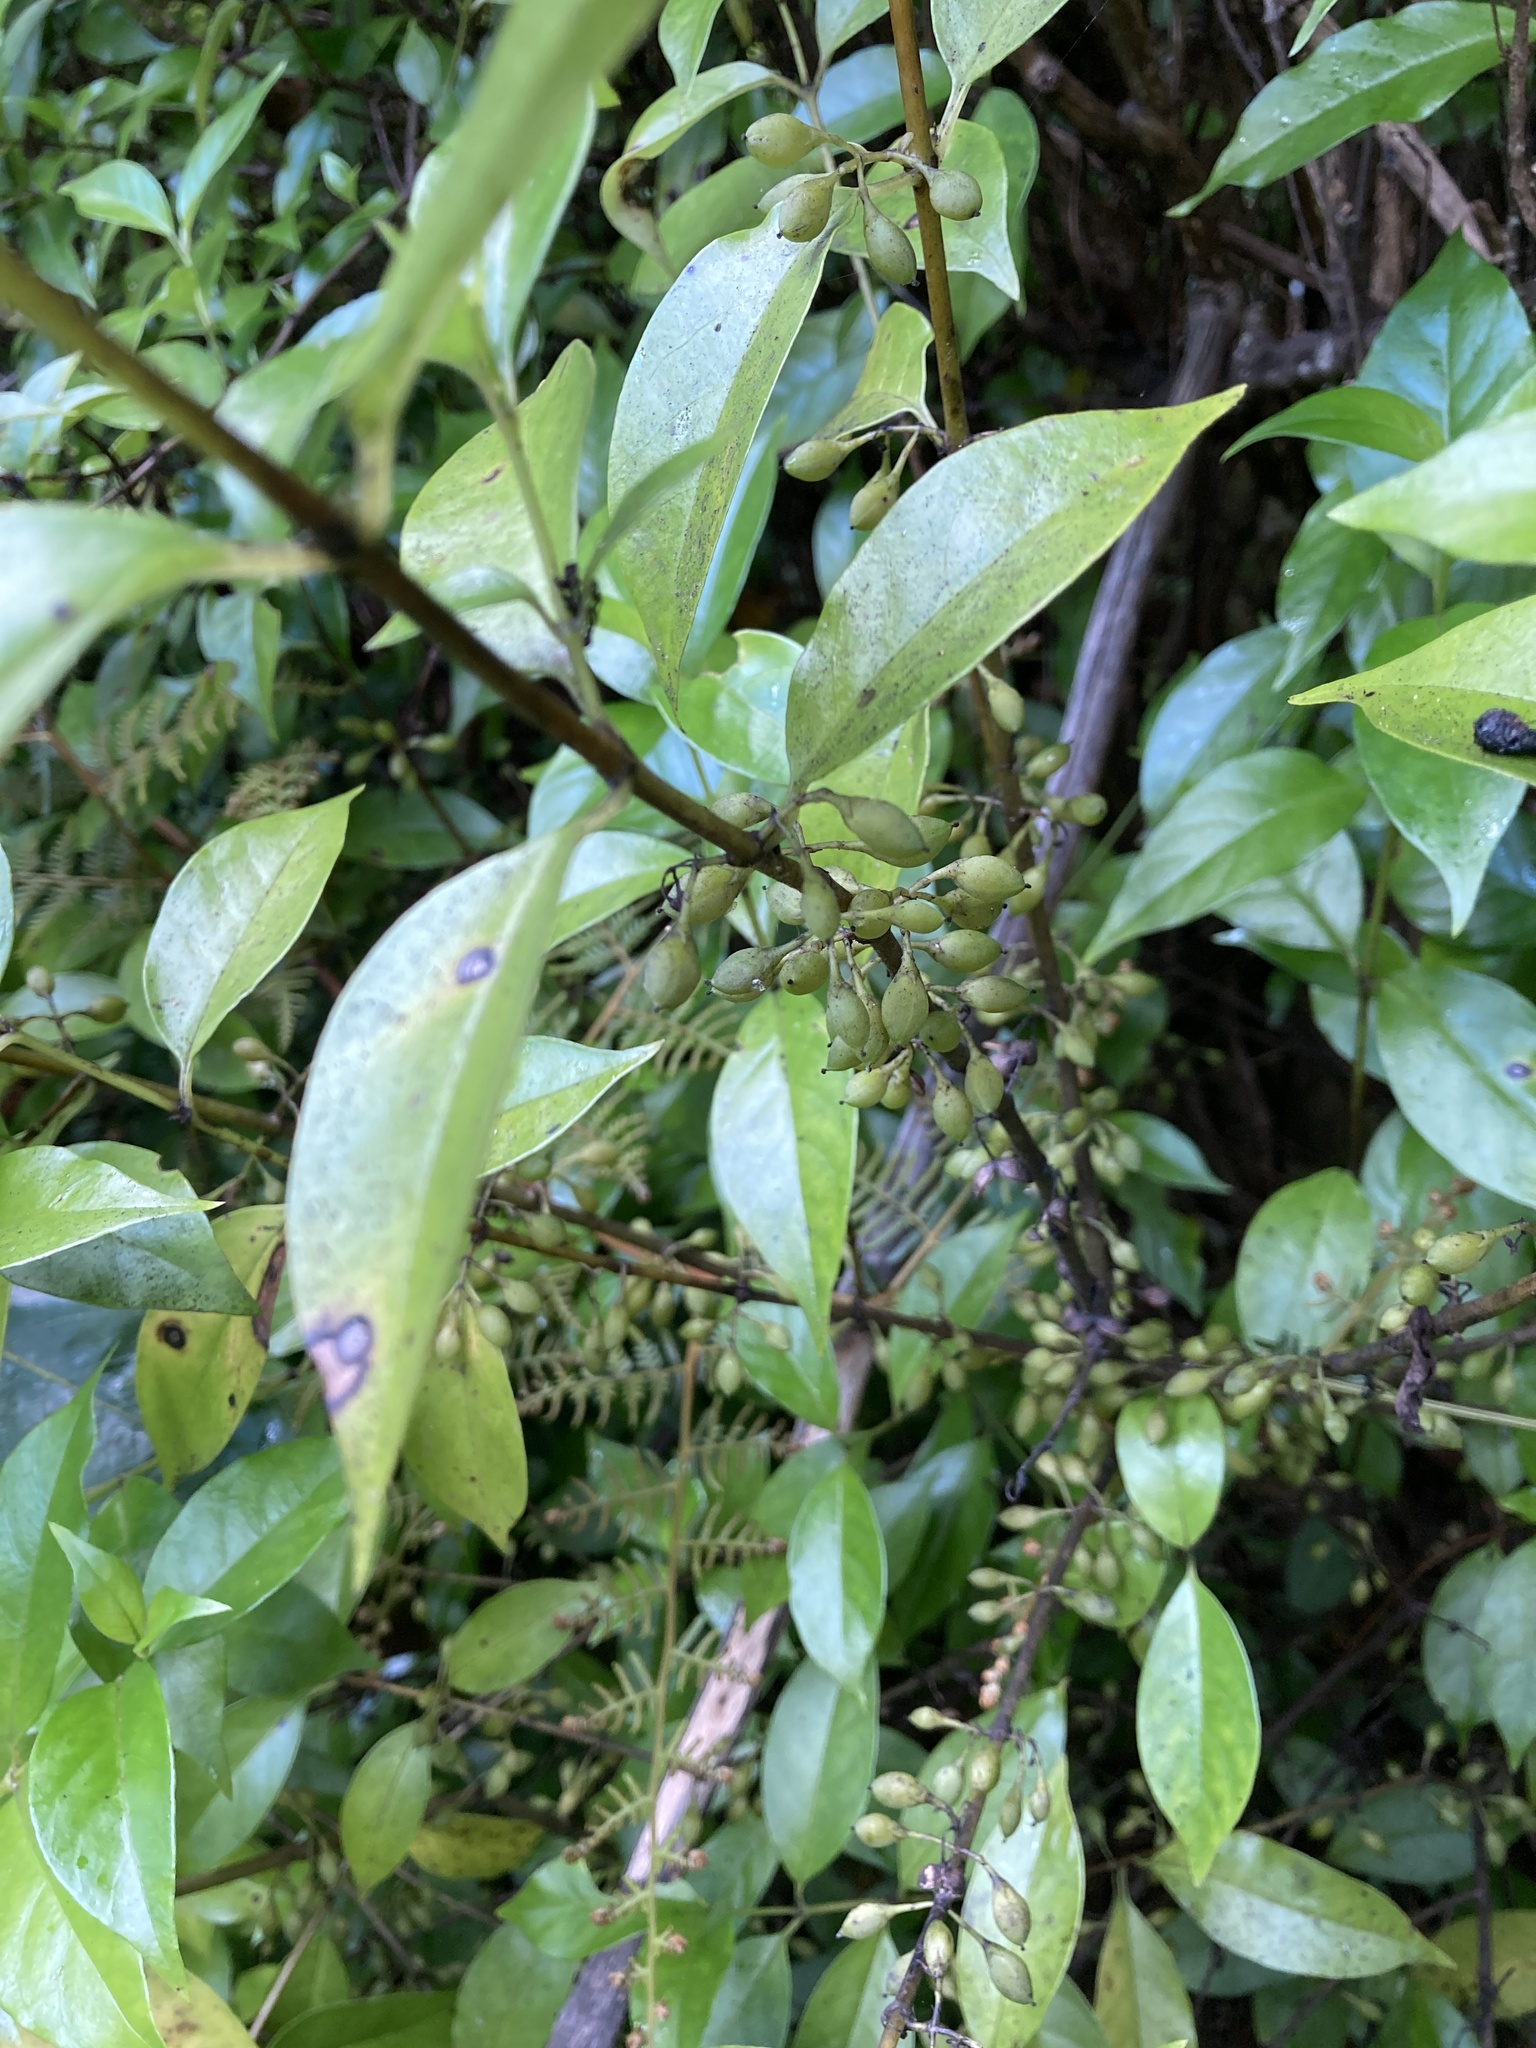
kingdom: Plantae
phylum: Tracheophyta
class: Magnoliopsida
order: Gentianales
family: Loganiaceae
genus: Geniostoma
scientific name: Geniostoma ligustrifolium
